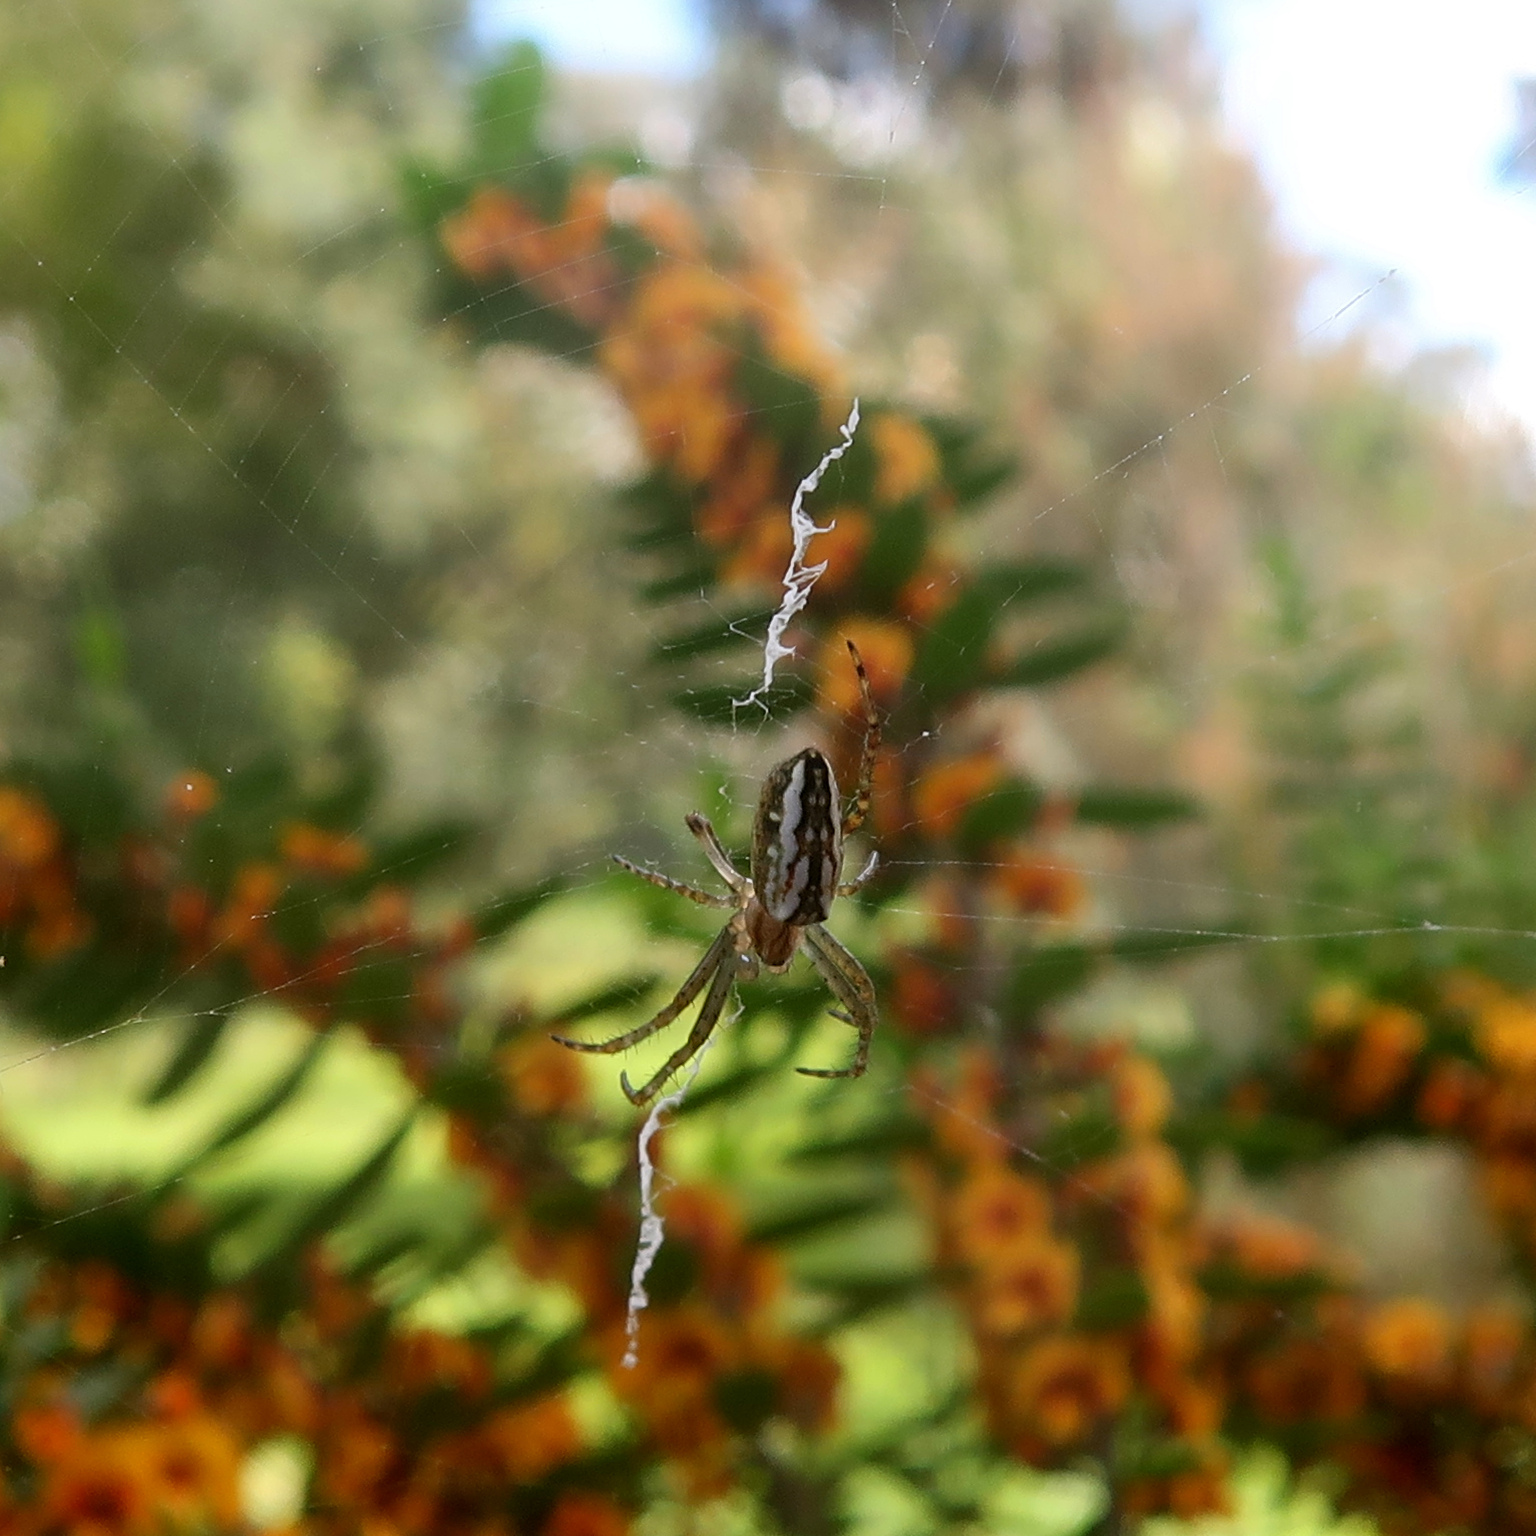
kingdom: Animalia
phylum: Arthropoda
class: Arachnida
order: Araneae
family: Araneidae
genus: Plebs
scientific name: Plebs bradleyi
